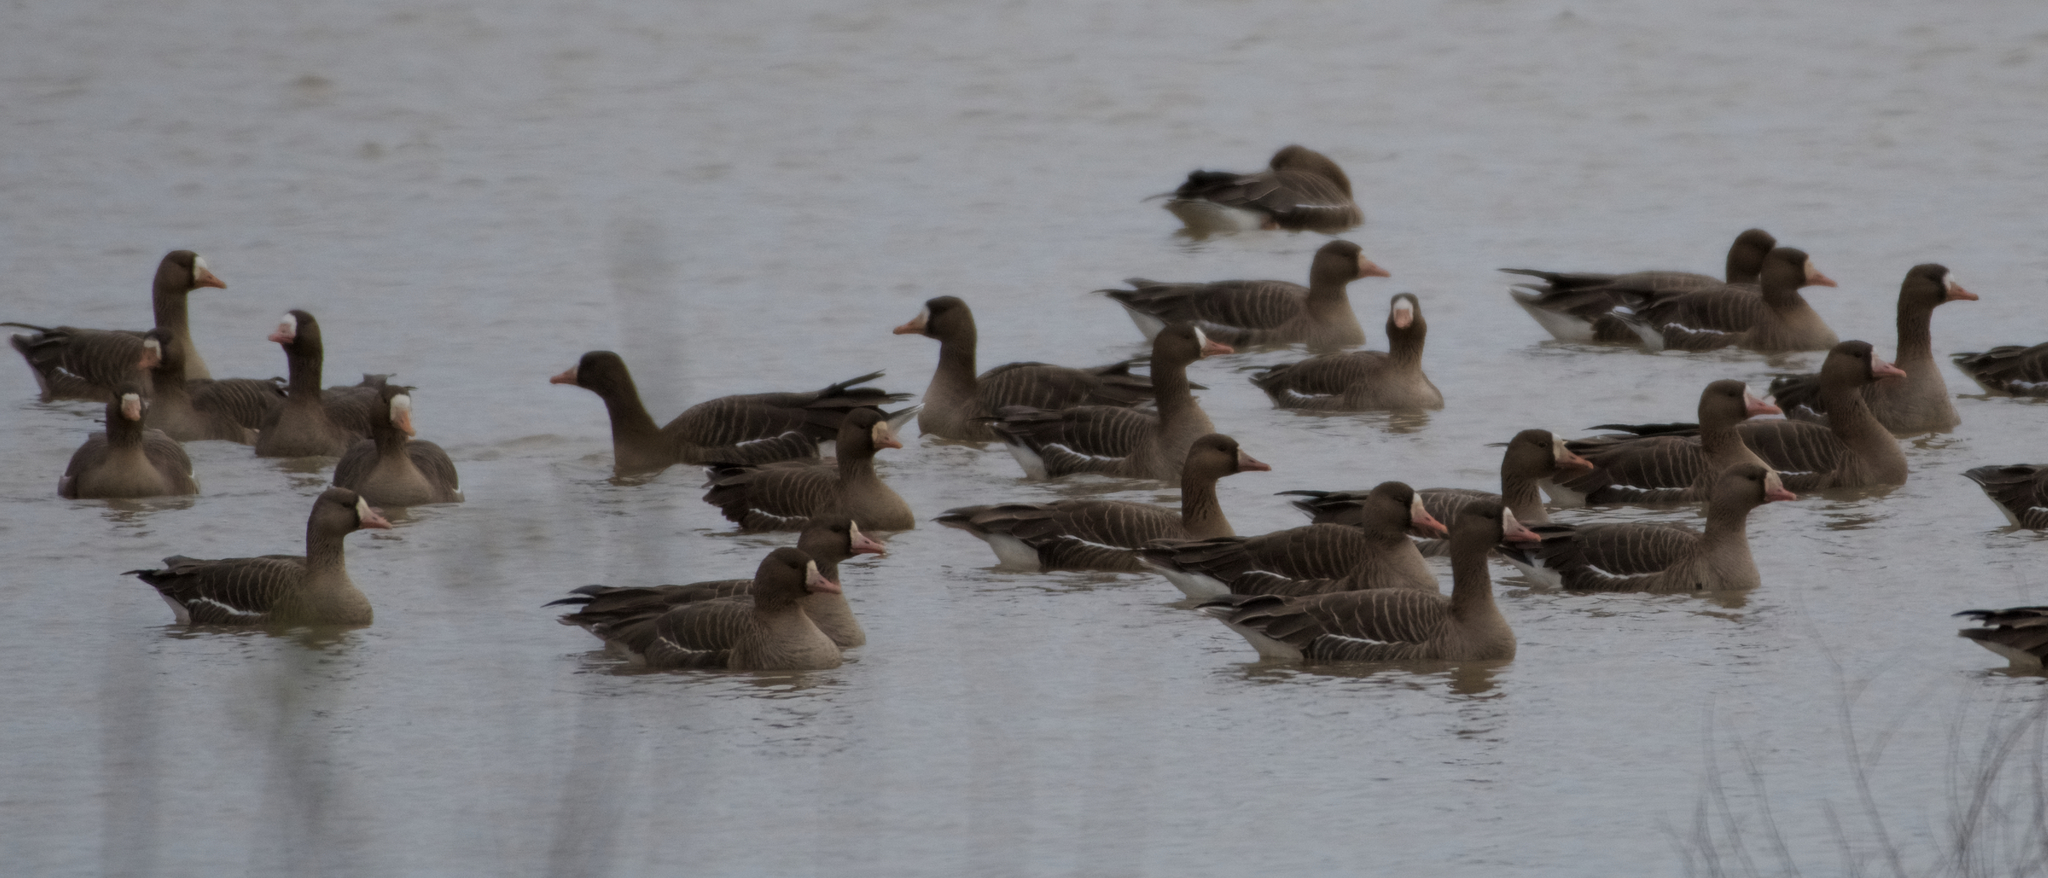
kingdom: Animalia
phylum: Chordata
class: Aves
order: Anseriformes
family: Anatidae
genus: Anser
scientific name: Anser albifrons
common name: Greater white-fronted goose
